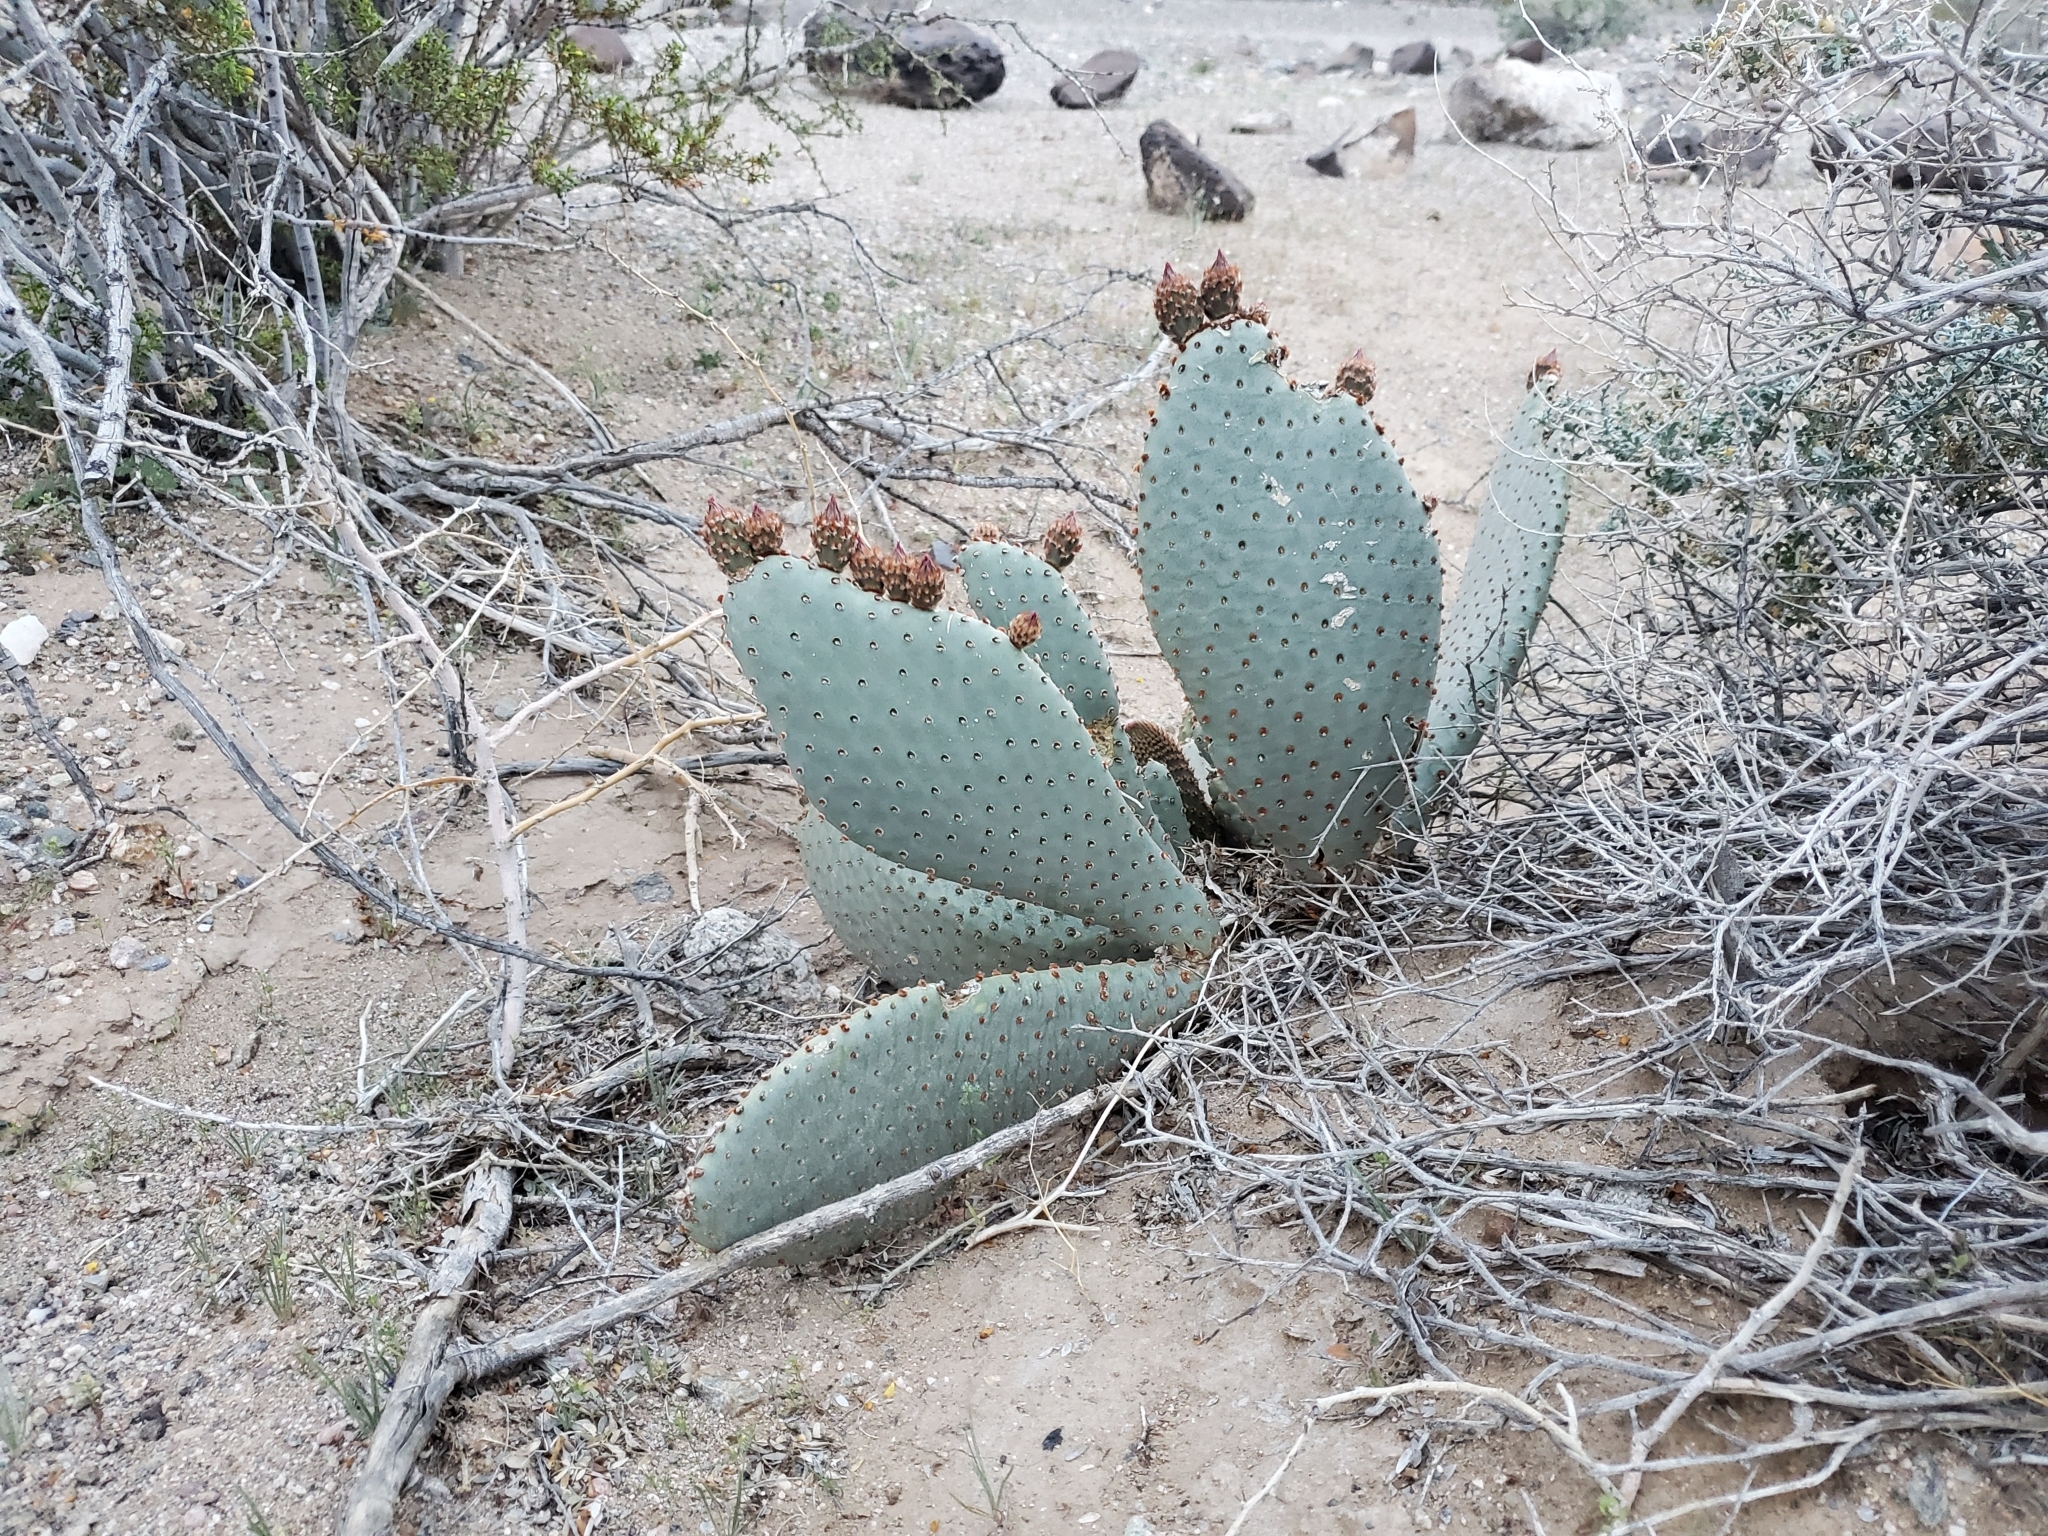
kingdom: Plantae
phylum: Tracheophyta
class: Magnoliopsida
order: Caryophyllales
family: Cactaceae
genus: Opuntia
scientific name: Opuntia basilaris
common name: Beavertail prickly-pear
